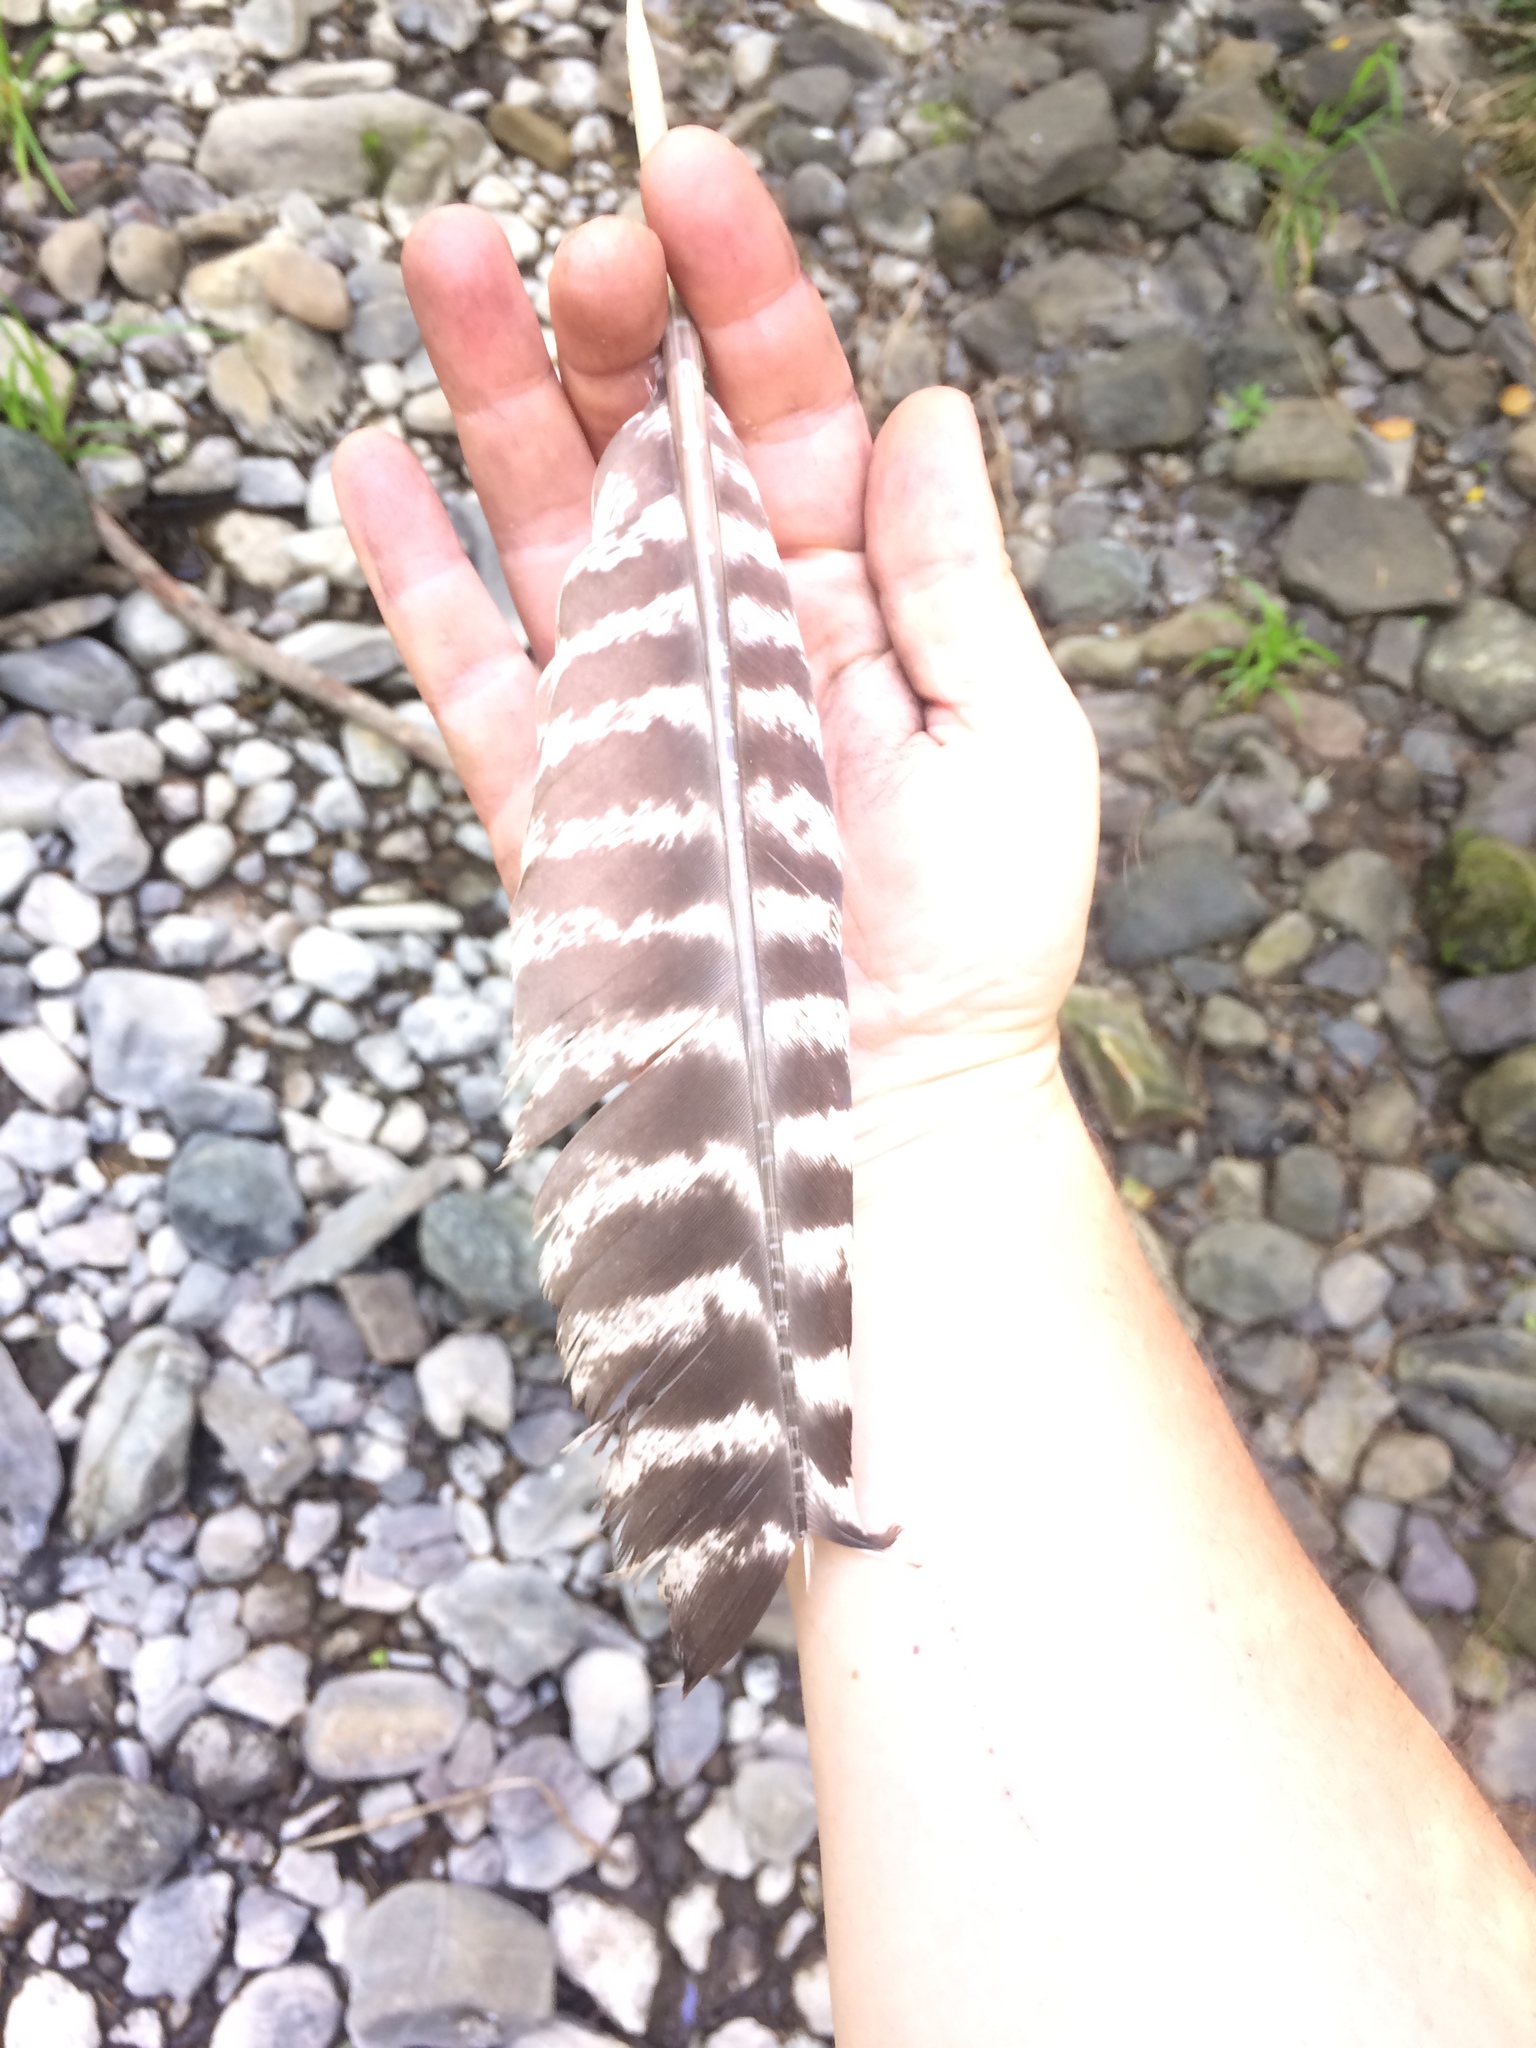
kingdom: Animalia
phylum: Chordata
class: Aves
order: Galliformes
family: Phasianidae
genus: Meleagris
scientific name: Meleagris gallopavo
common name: Wild turkey
